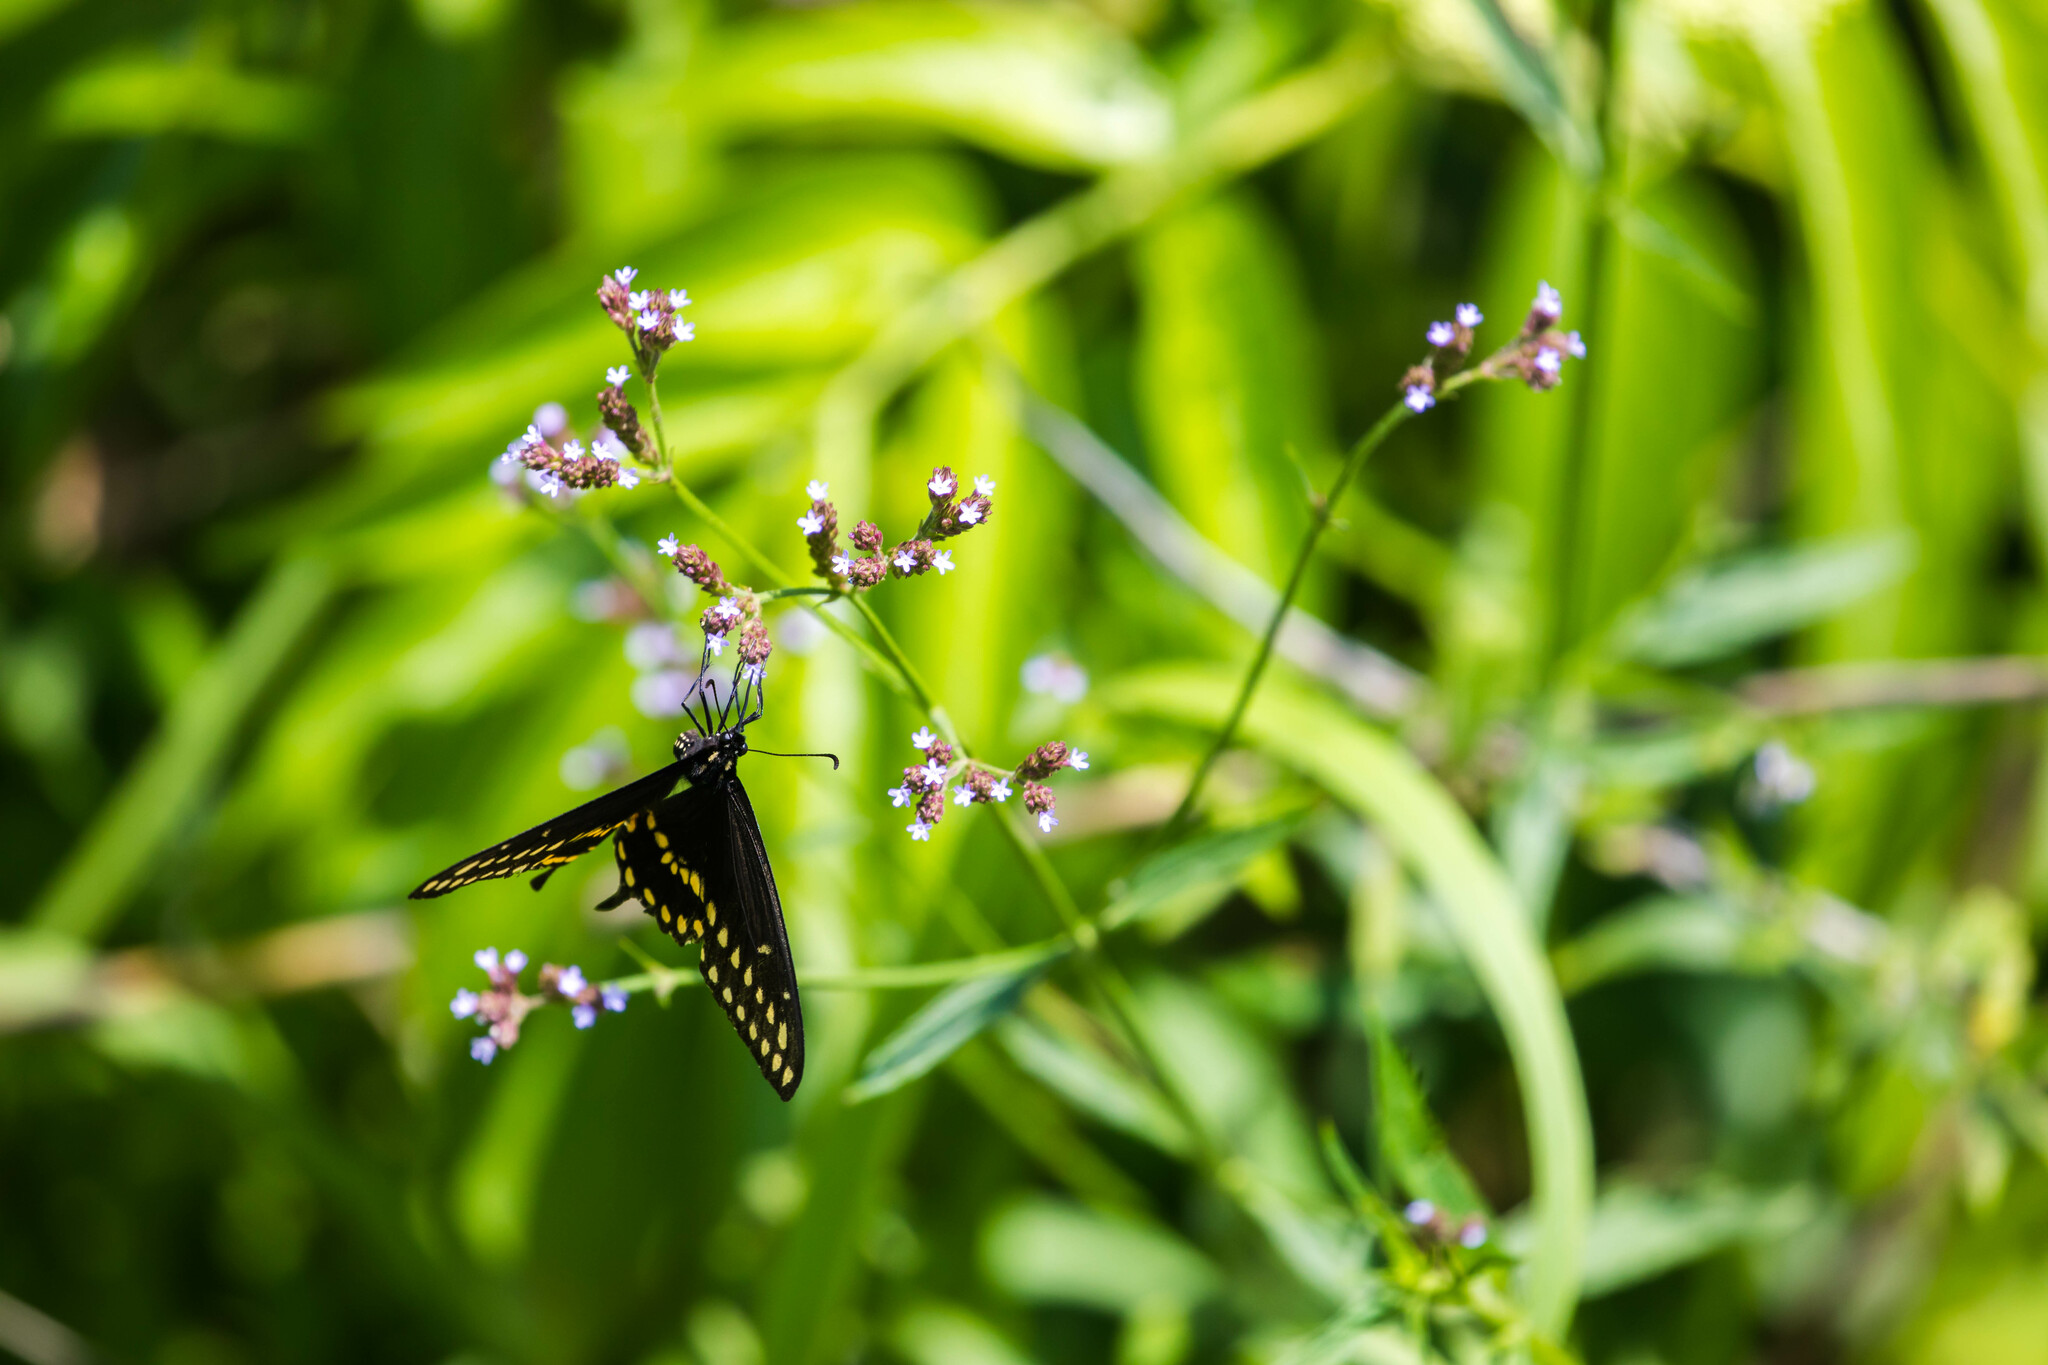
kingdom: Animalia
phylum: Arthropoda
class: Insecta
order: Lepidoptera
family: Papilionidae
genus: Papilio
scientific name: Papilio polyxenes
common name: Black swallowtail
